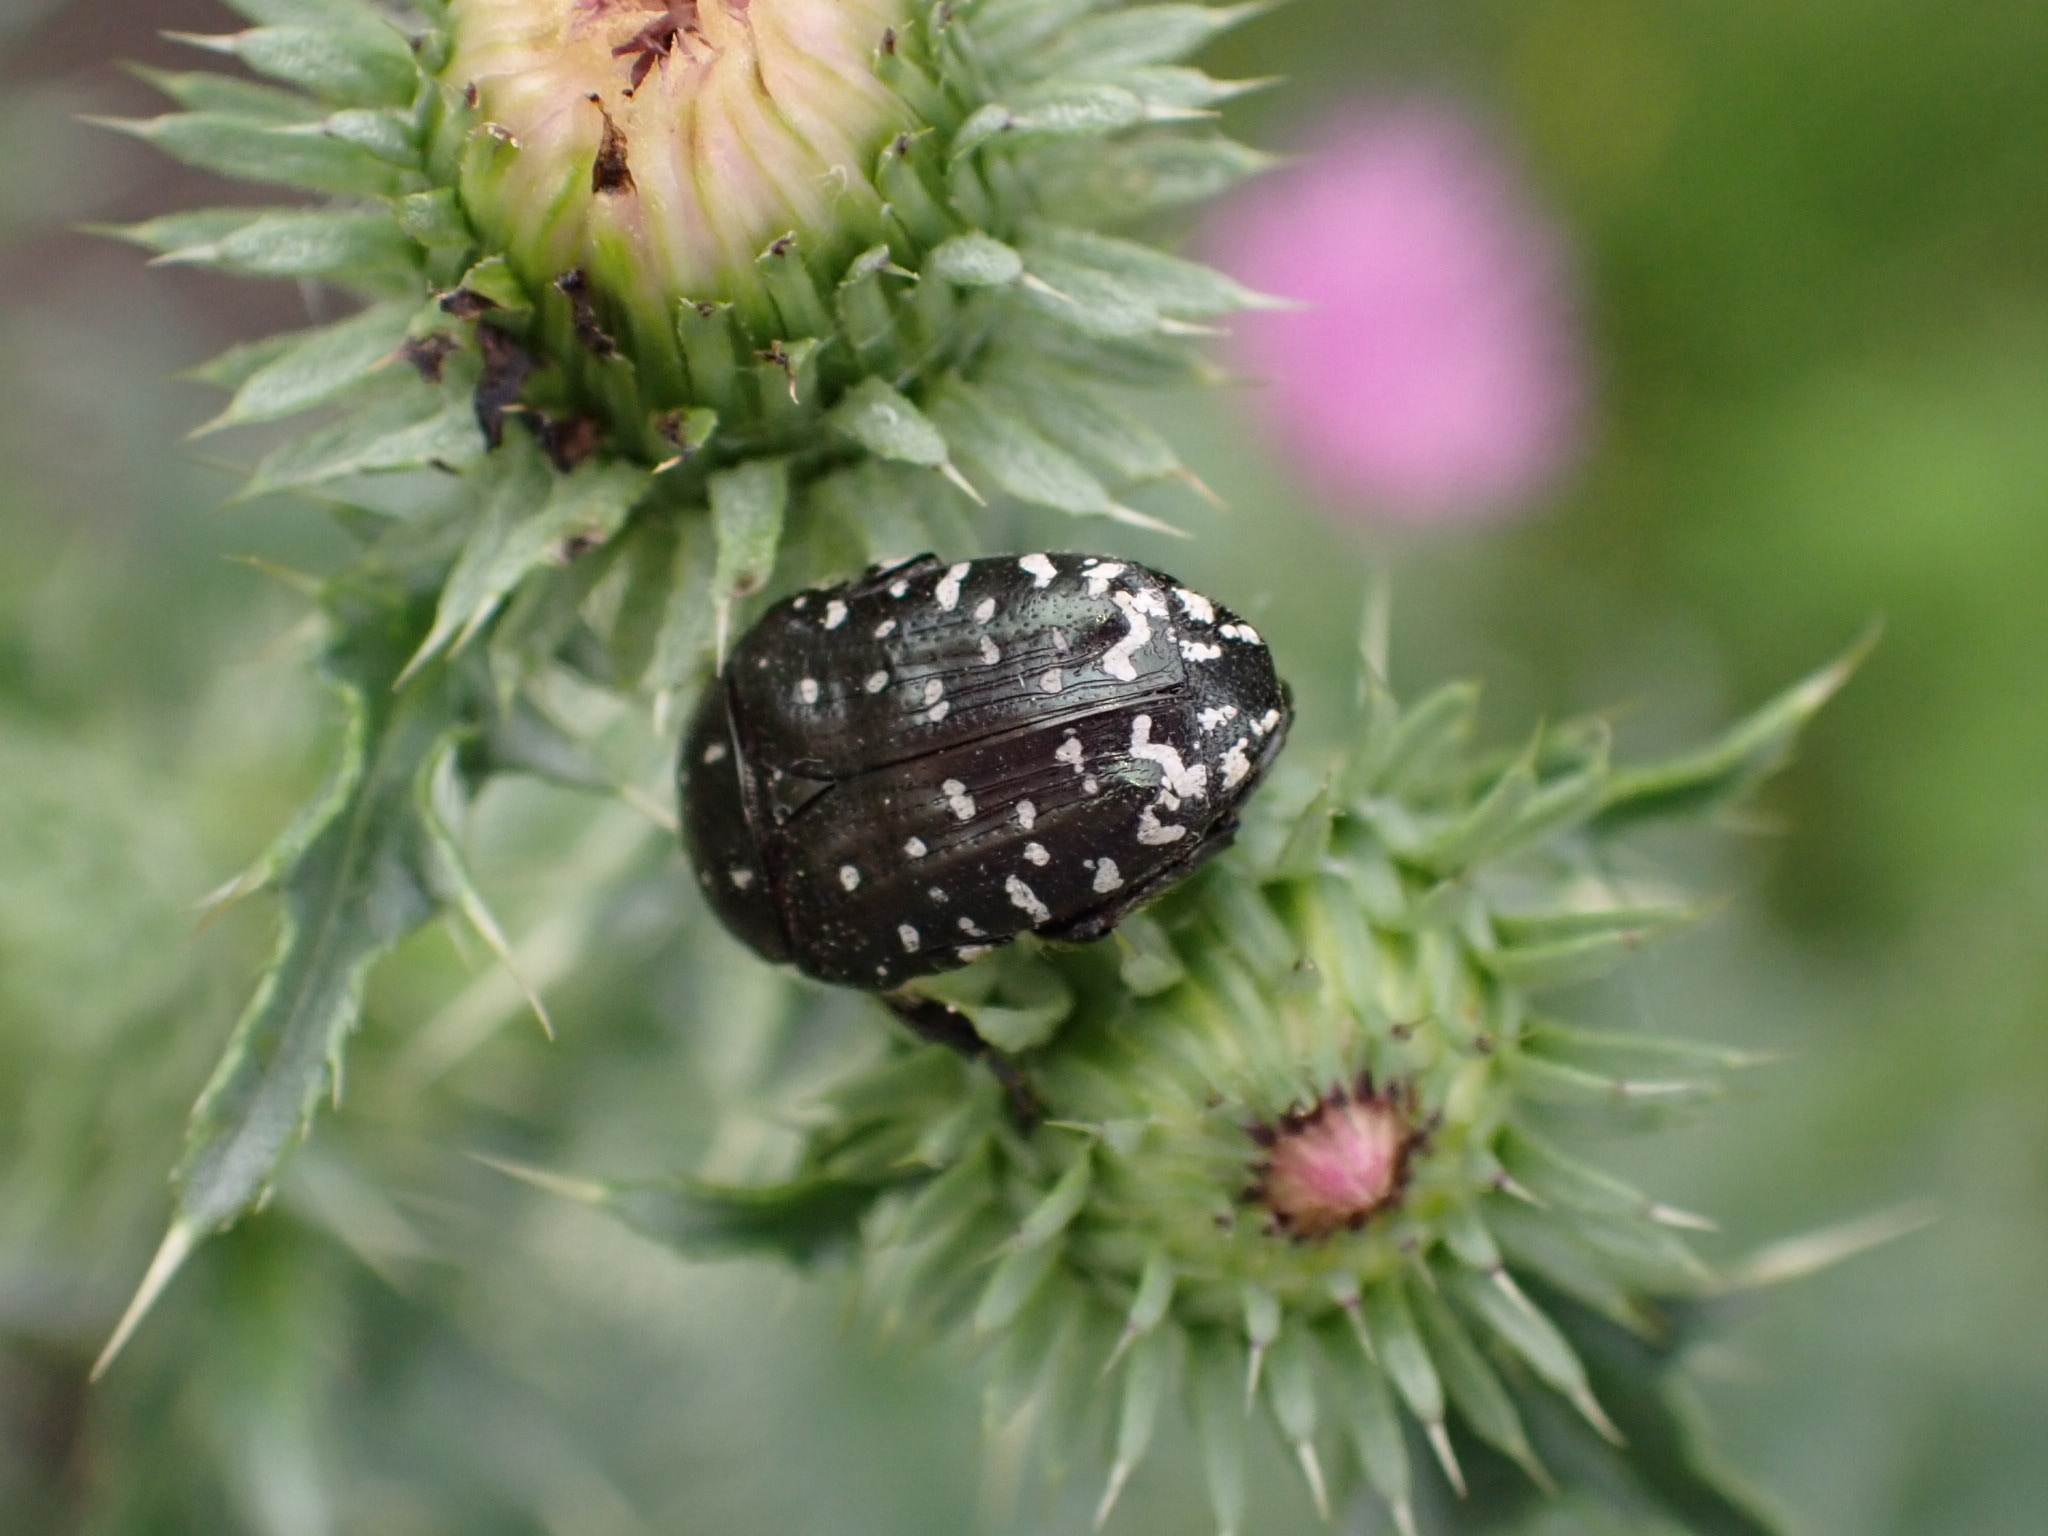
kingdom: Animalia
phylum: Arthropoda
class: Insecta
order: Coleoptera
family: Scarabaeidae
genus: Oxythyrea
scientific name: Oxythyrea funesta
